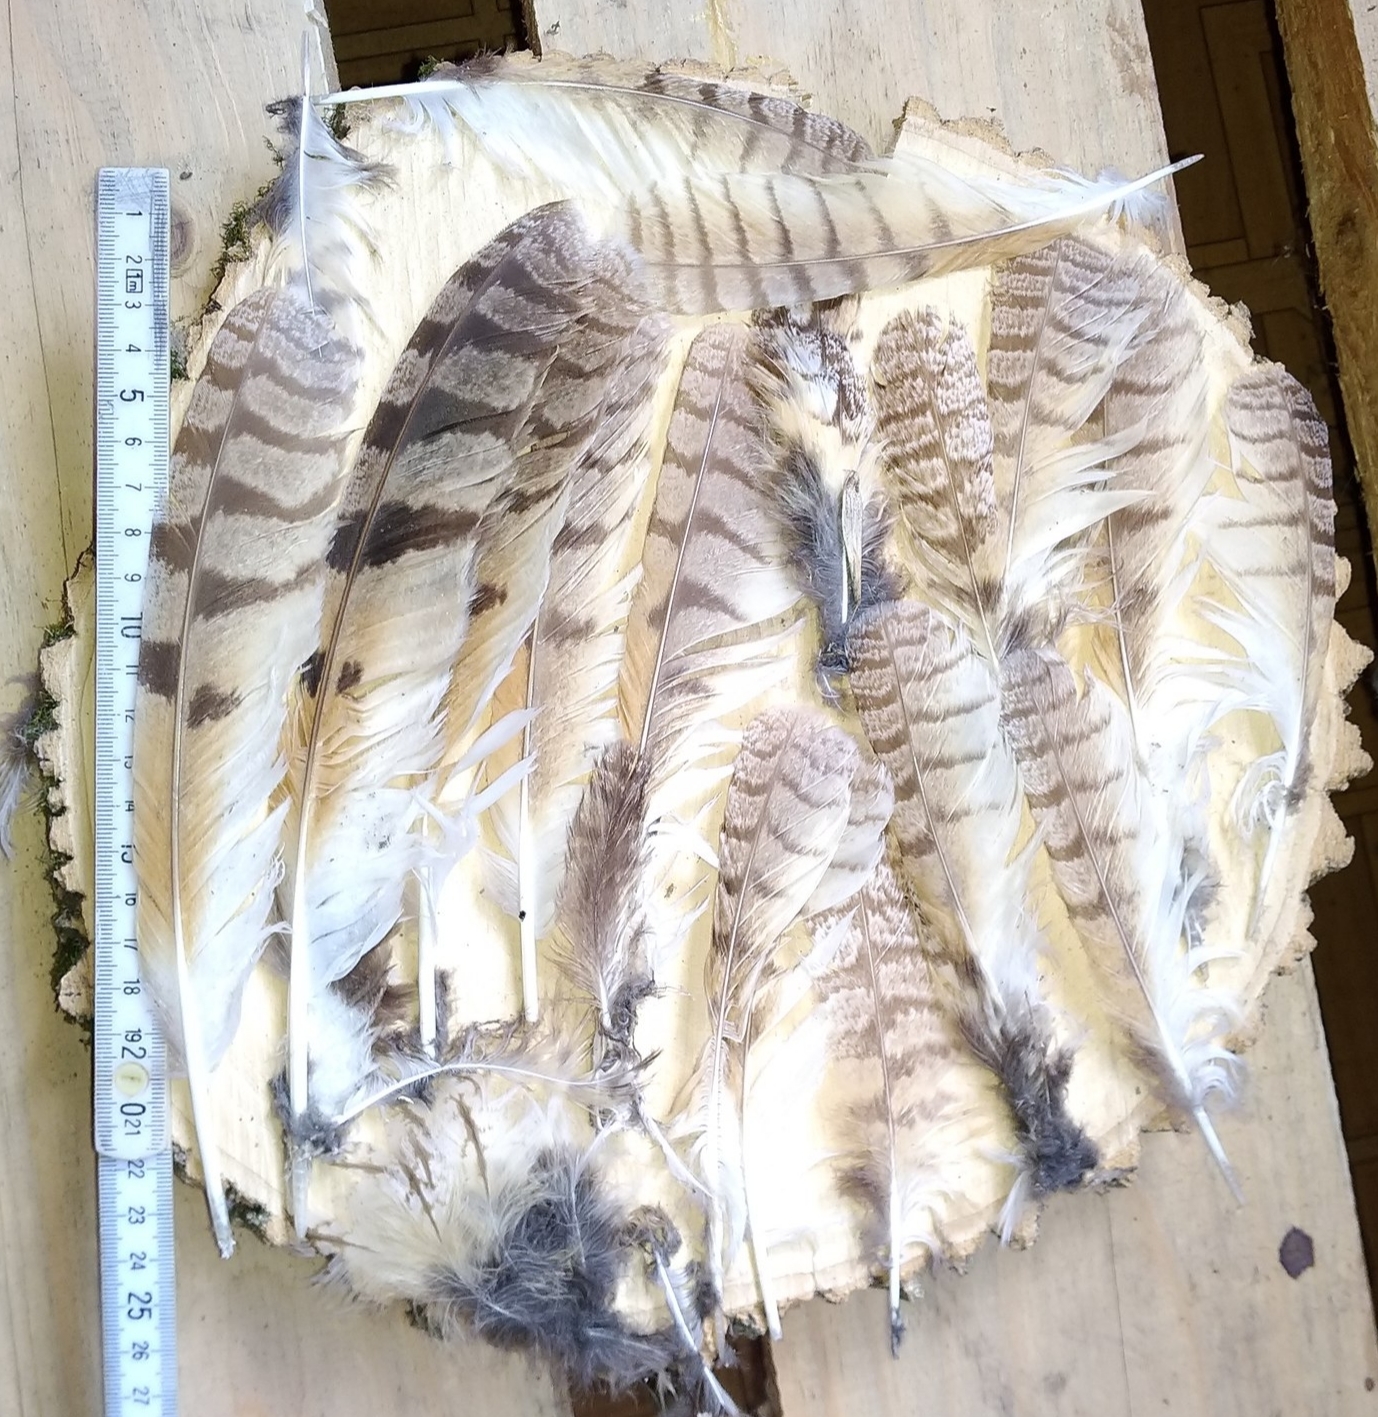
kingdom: Animalia
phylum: Chordata
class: Aves
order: Strigiformes
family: Strigidae
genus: Asio
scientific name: Asio otus
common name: Long-eared owl
